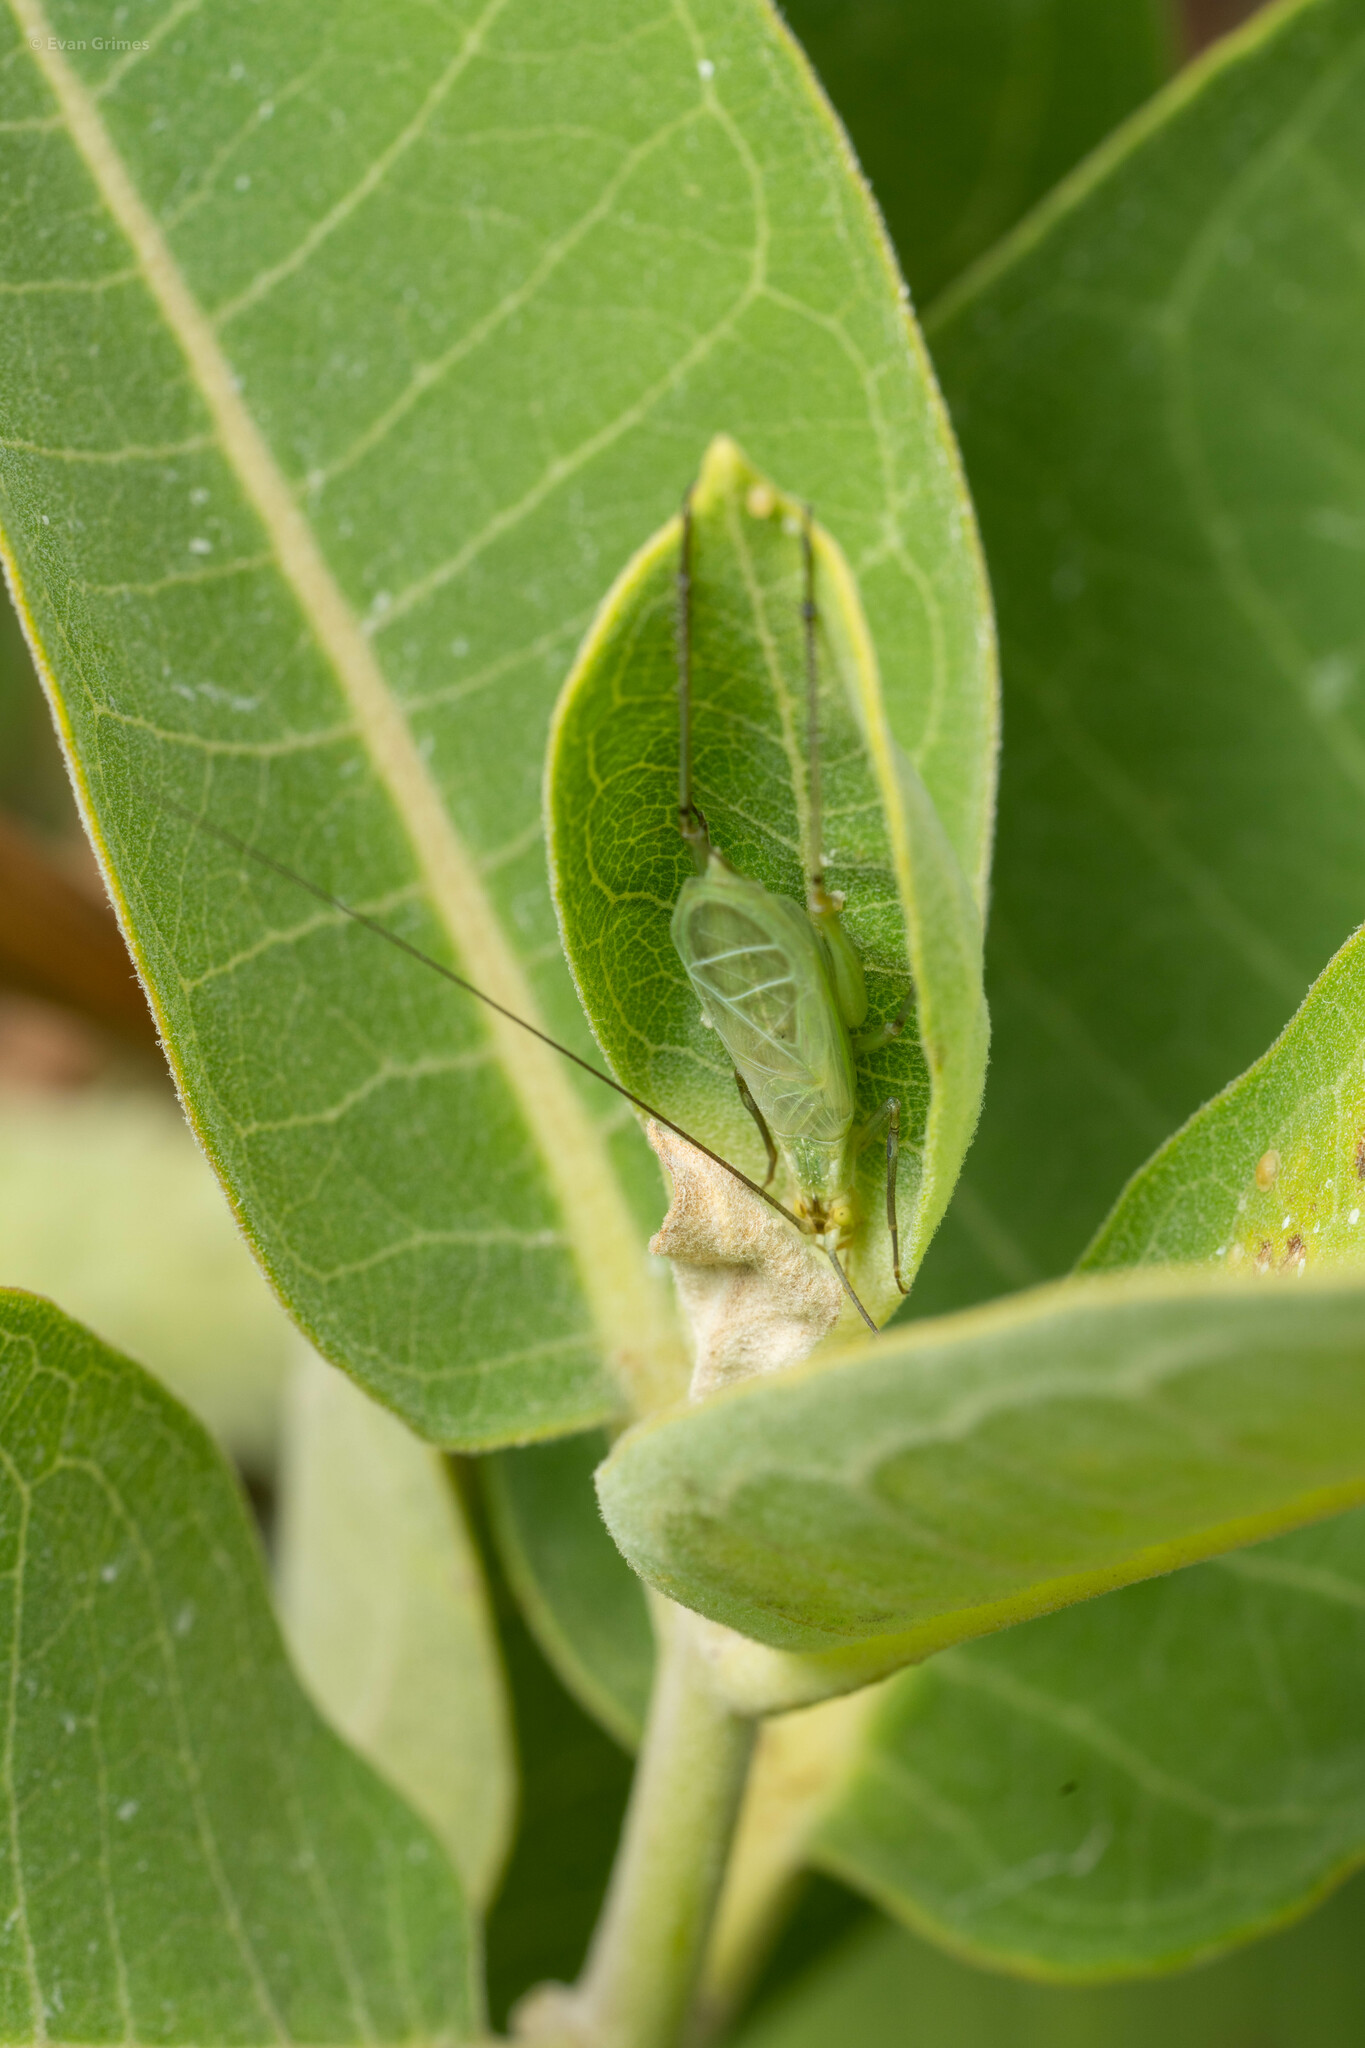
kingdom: Animalia
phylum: Arthropoda
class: Insecta
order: Orthoptera
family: Gryllidae
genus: Oecanthus
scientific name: Oecanthus forbesi
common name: Forbes’s tree cricket
